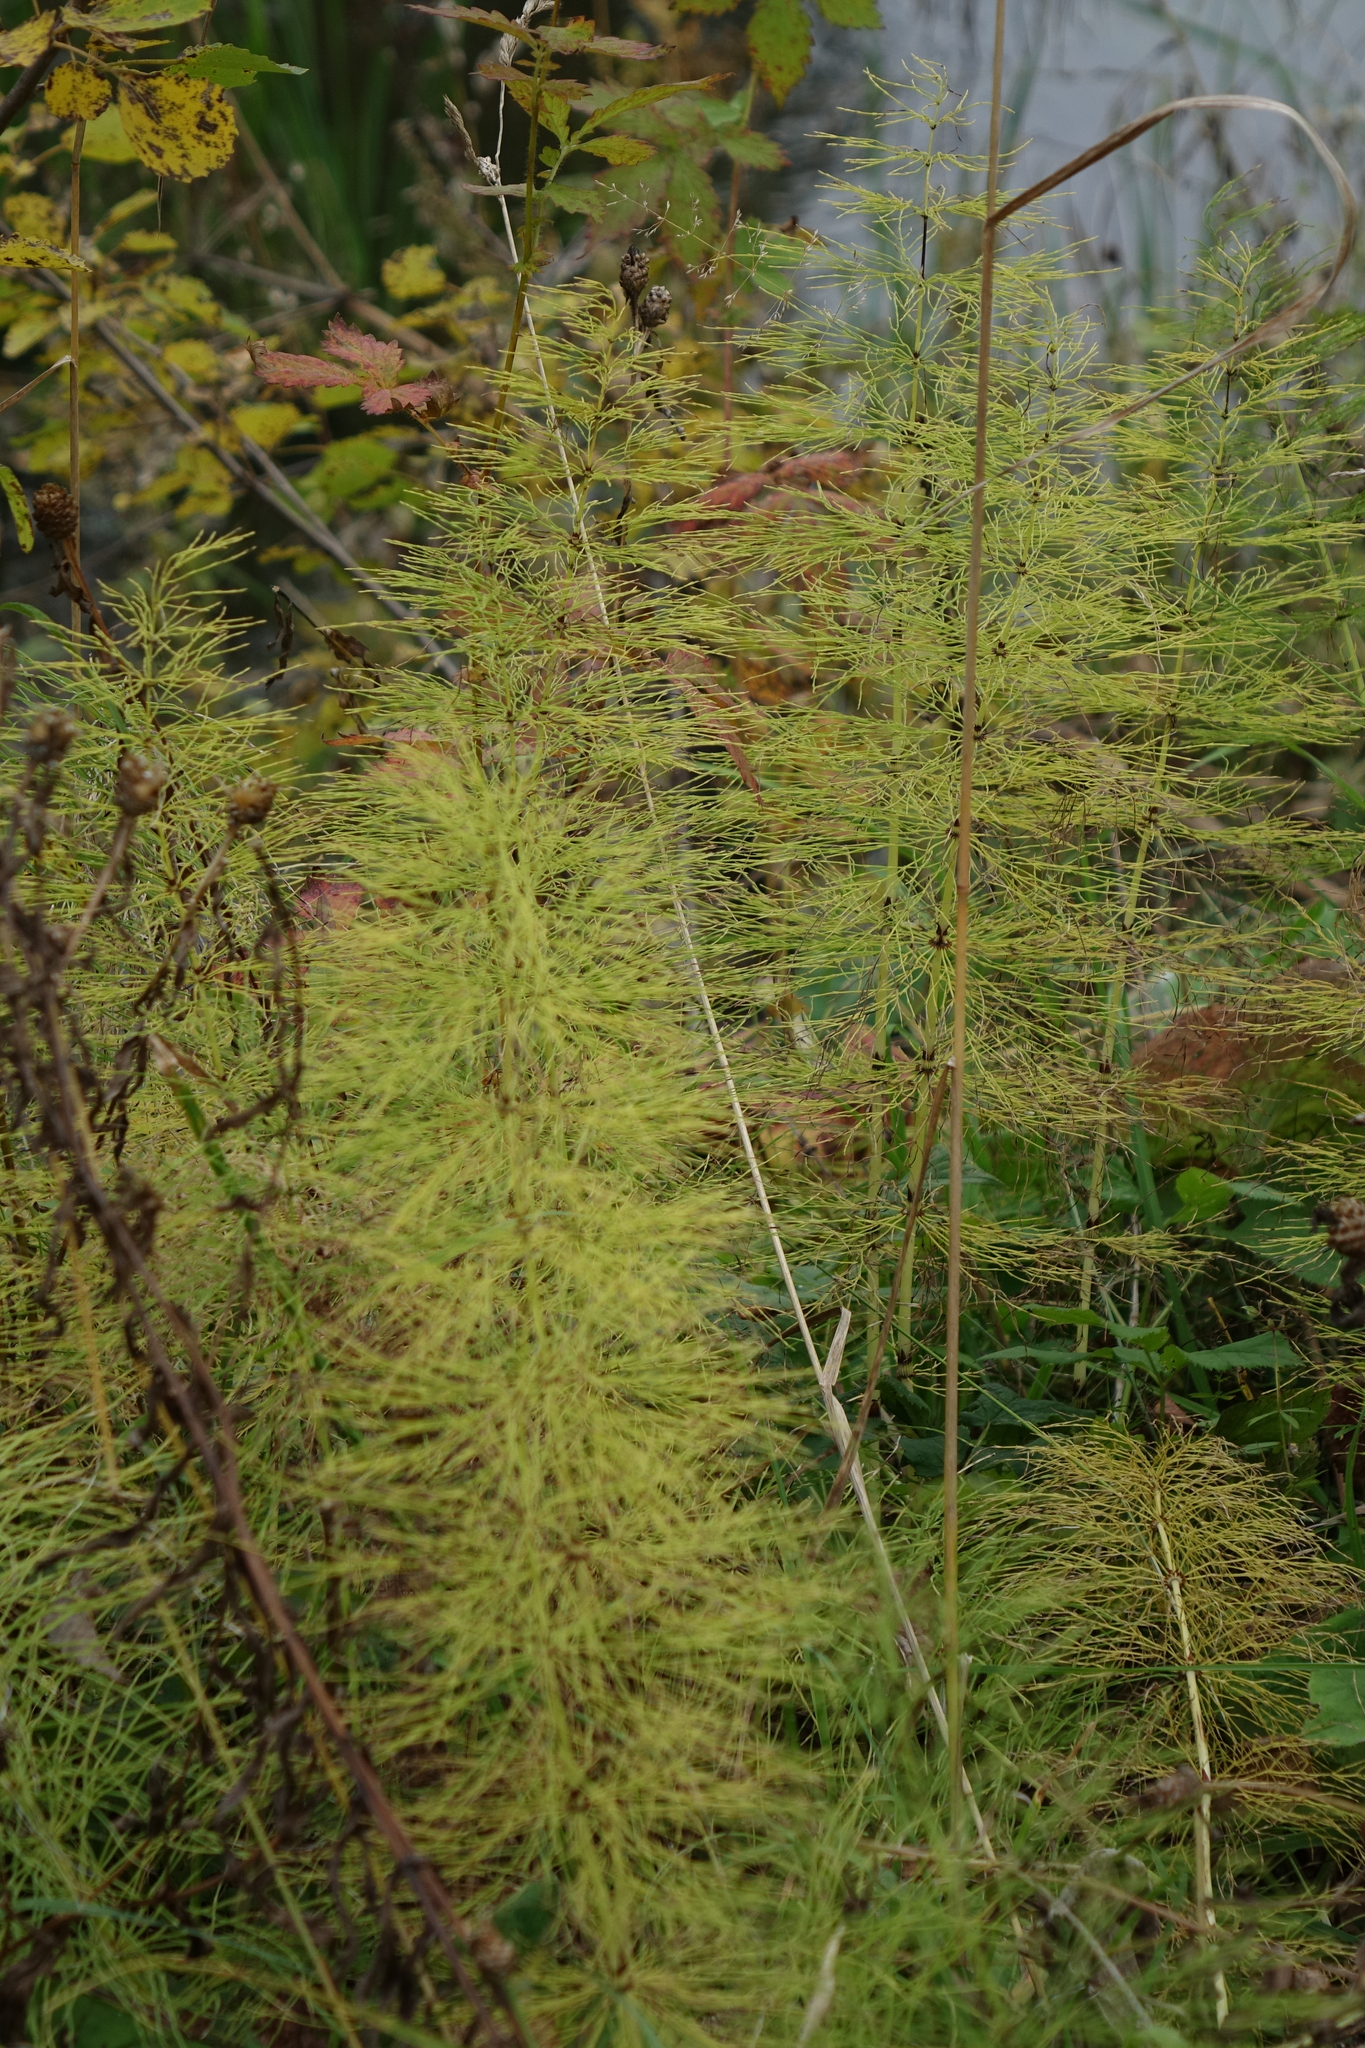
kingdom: Plantae
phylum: Tracheophyta
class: Polypodiopsida
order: Equisetales
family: Equisetaceae
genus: Equisetum
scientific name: Equisetum sylvaticum
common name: Wood horsetail
